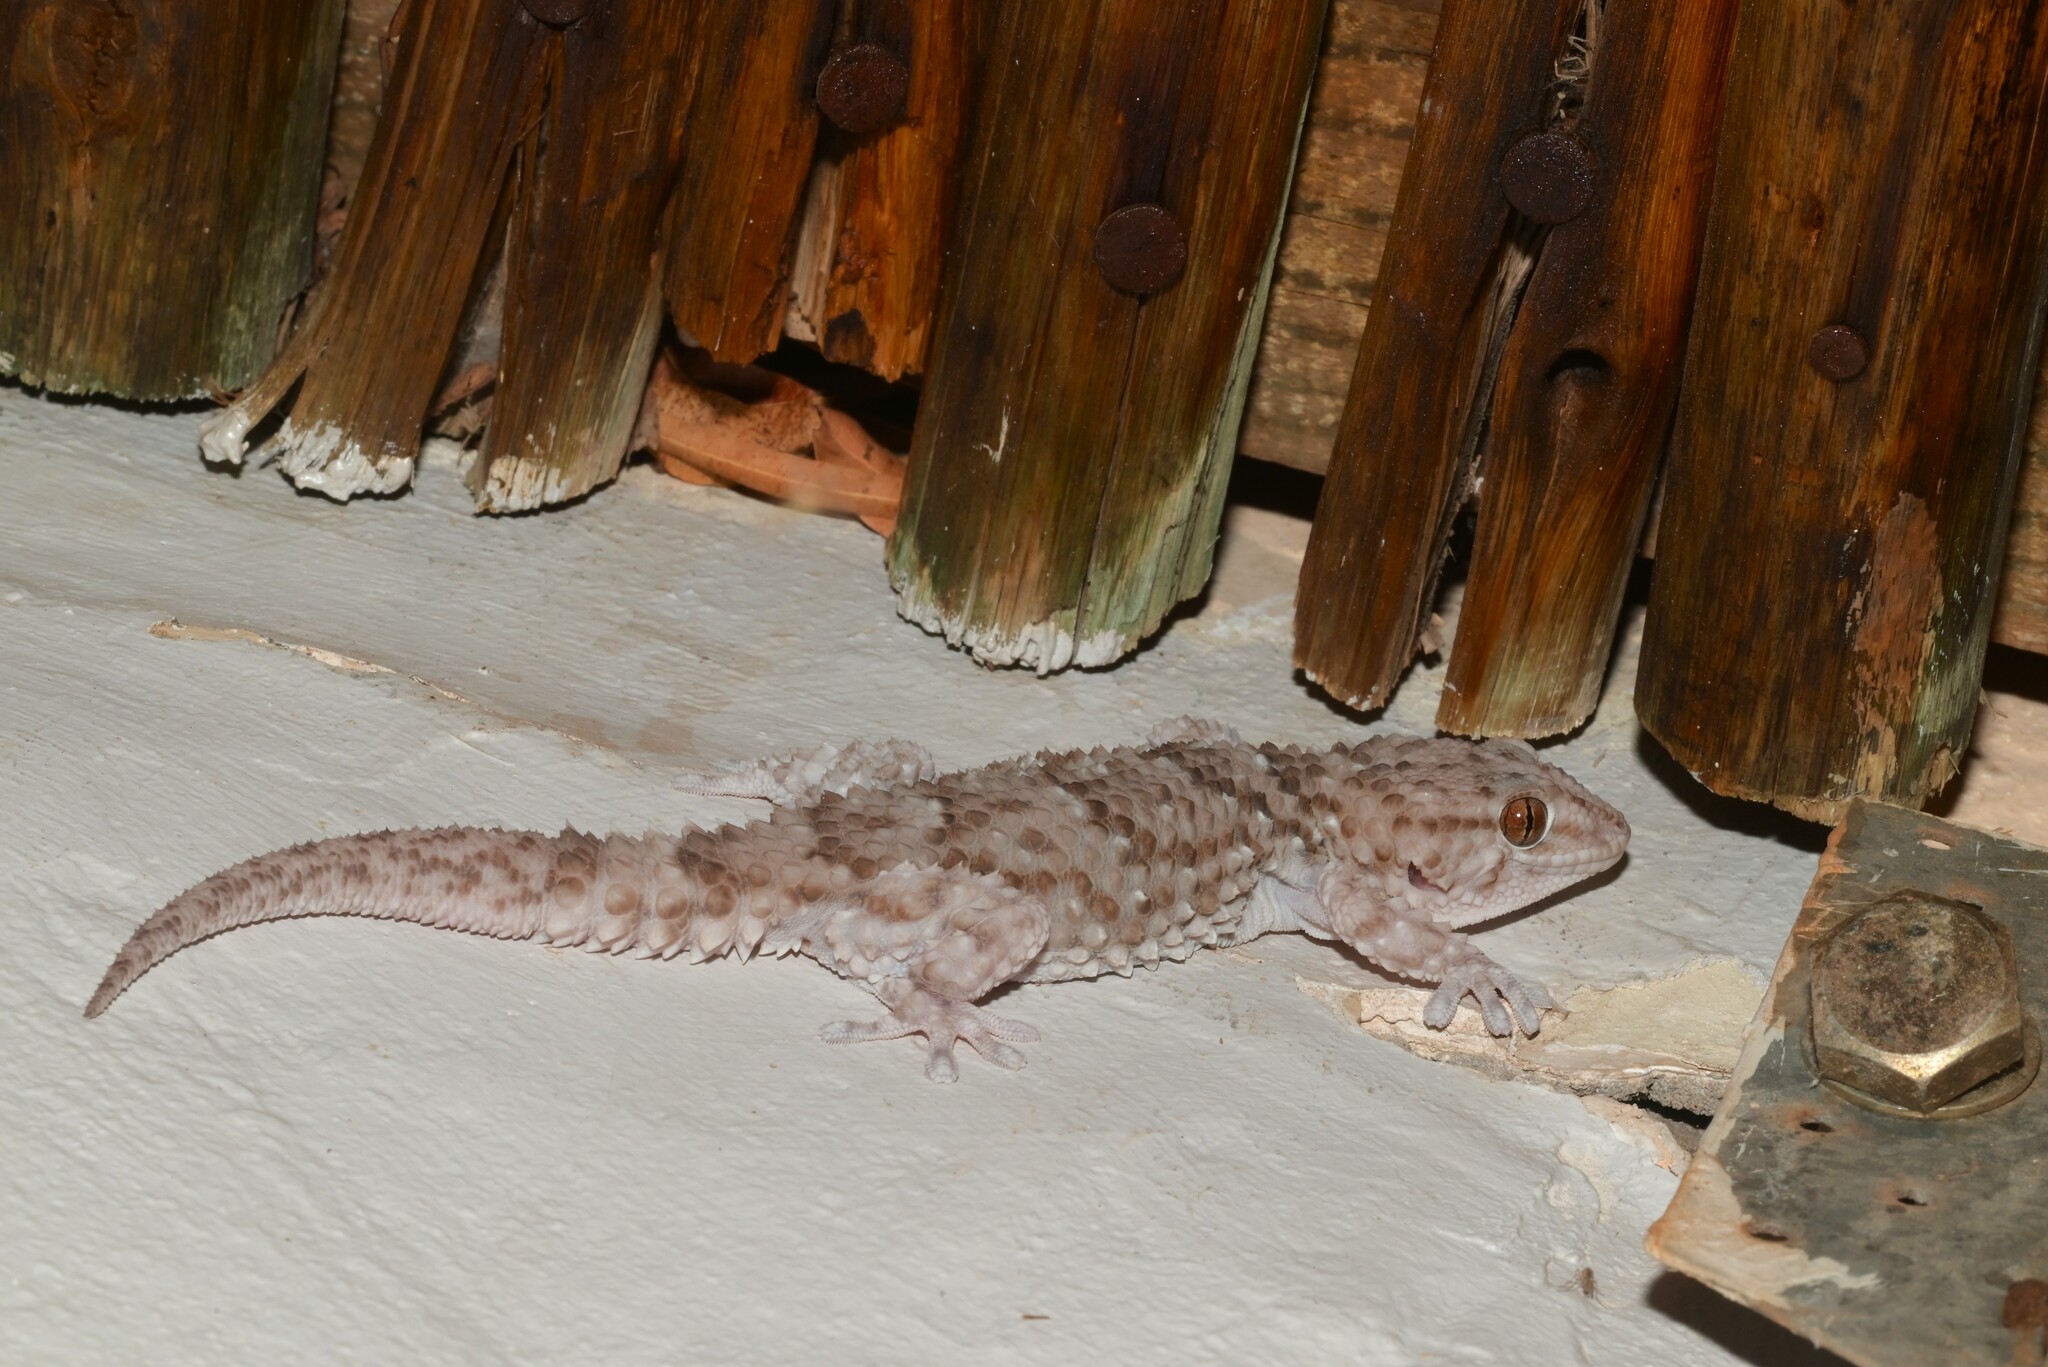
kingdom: Animalia
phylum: Chordata
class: Squamata
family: Gekkonidae
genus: Chondrodactylus
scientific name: Chondrodactylus bibronii
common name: Bibron's gecko
